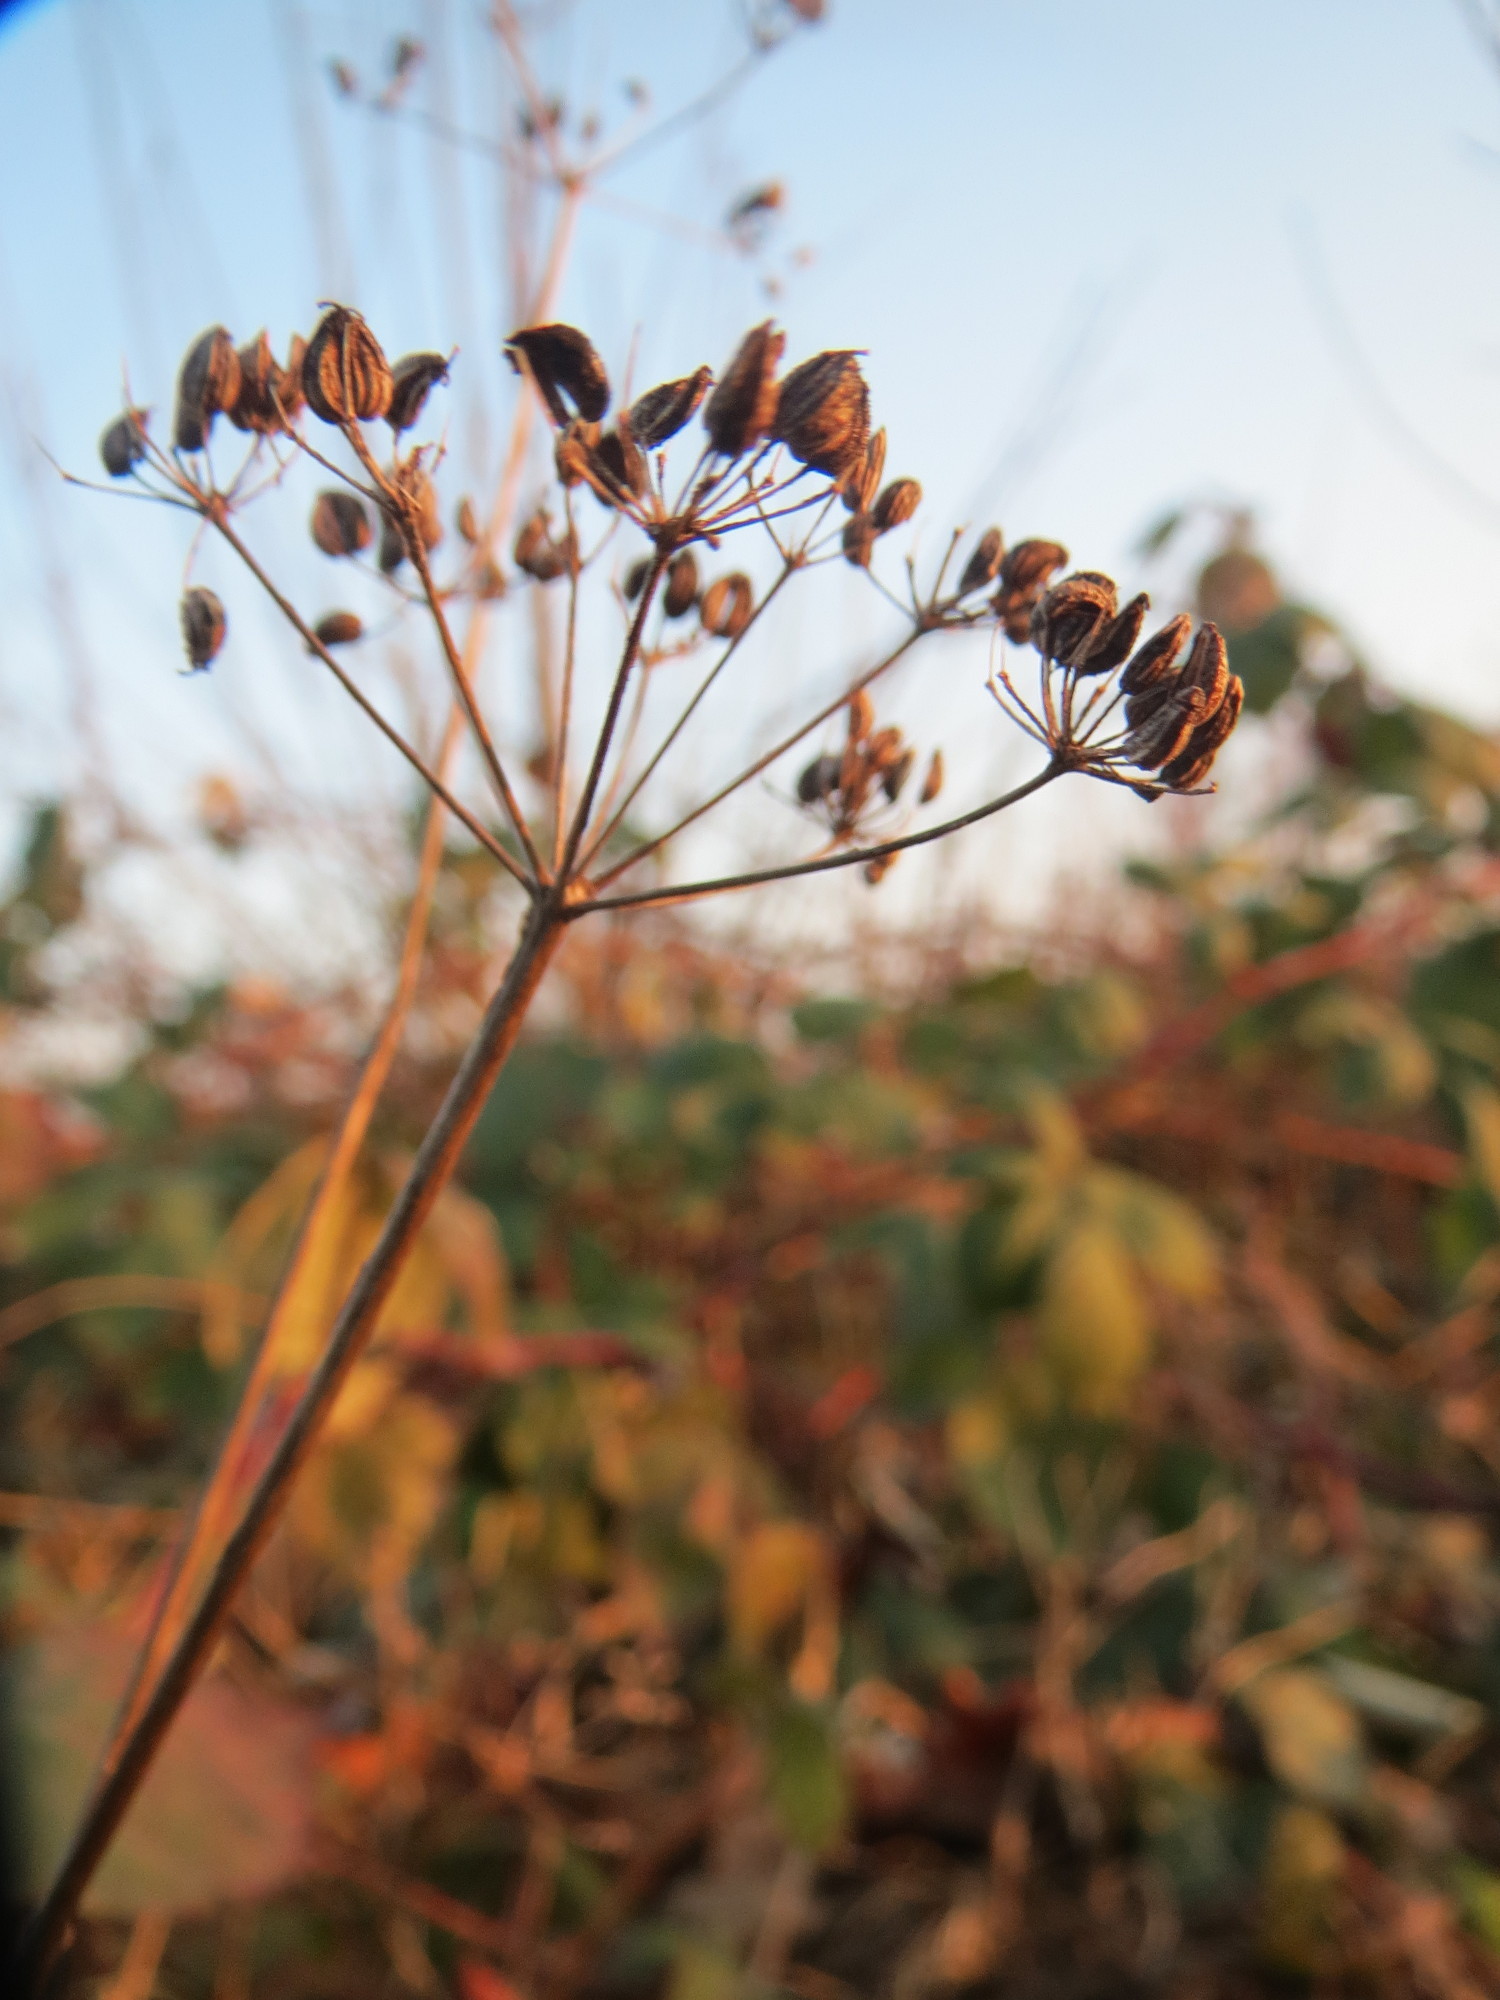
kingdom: Plantae
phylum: Tracheophyta
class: Magnoliopsida
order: Apiales
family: Apiaceae
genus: Petroselinum
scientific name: Petroselinum crispum
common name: Parsley
